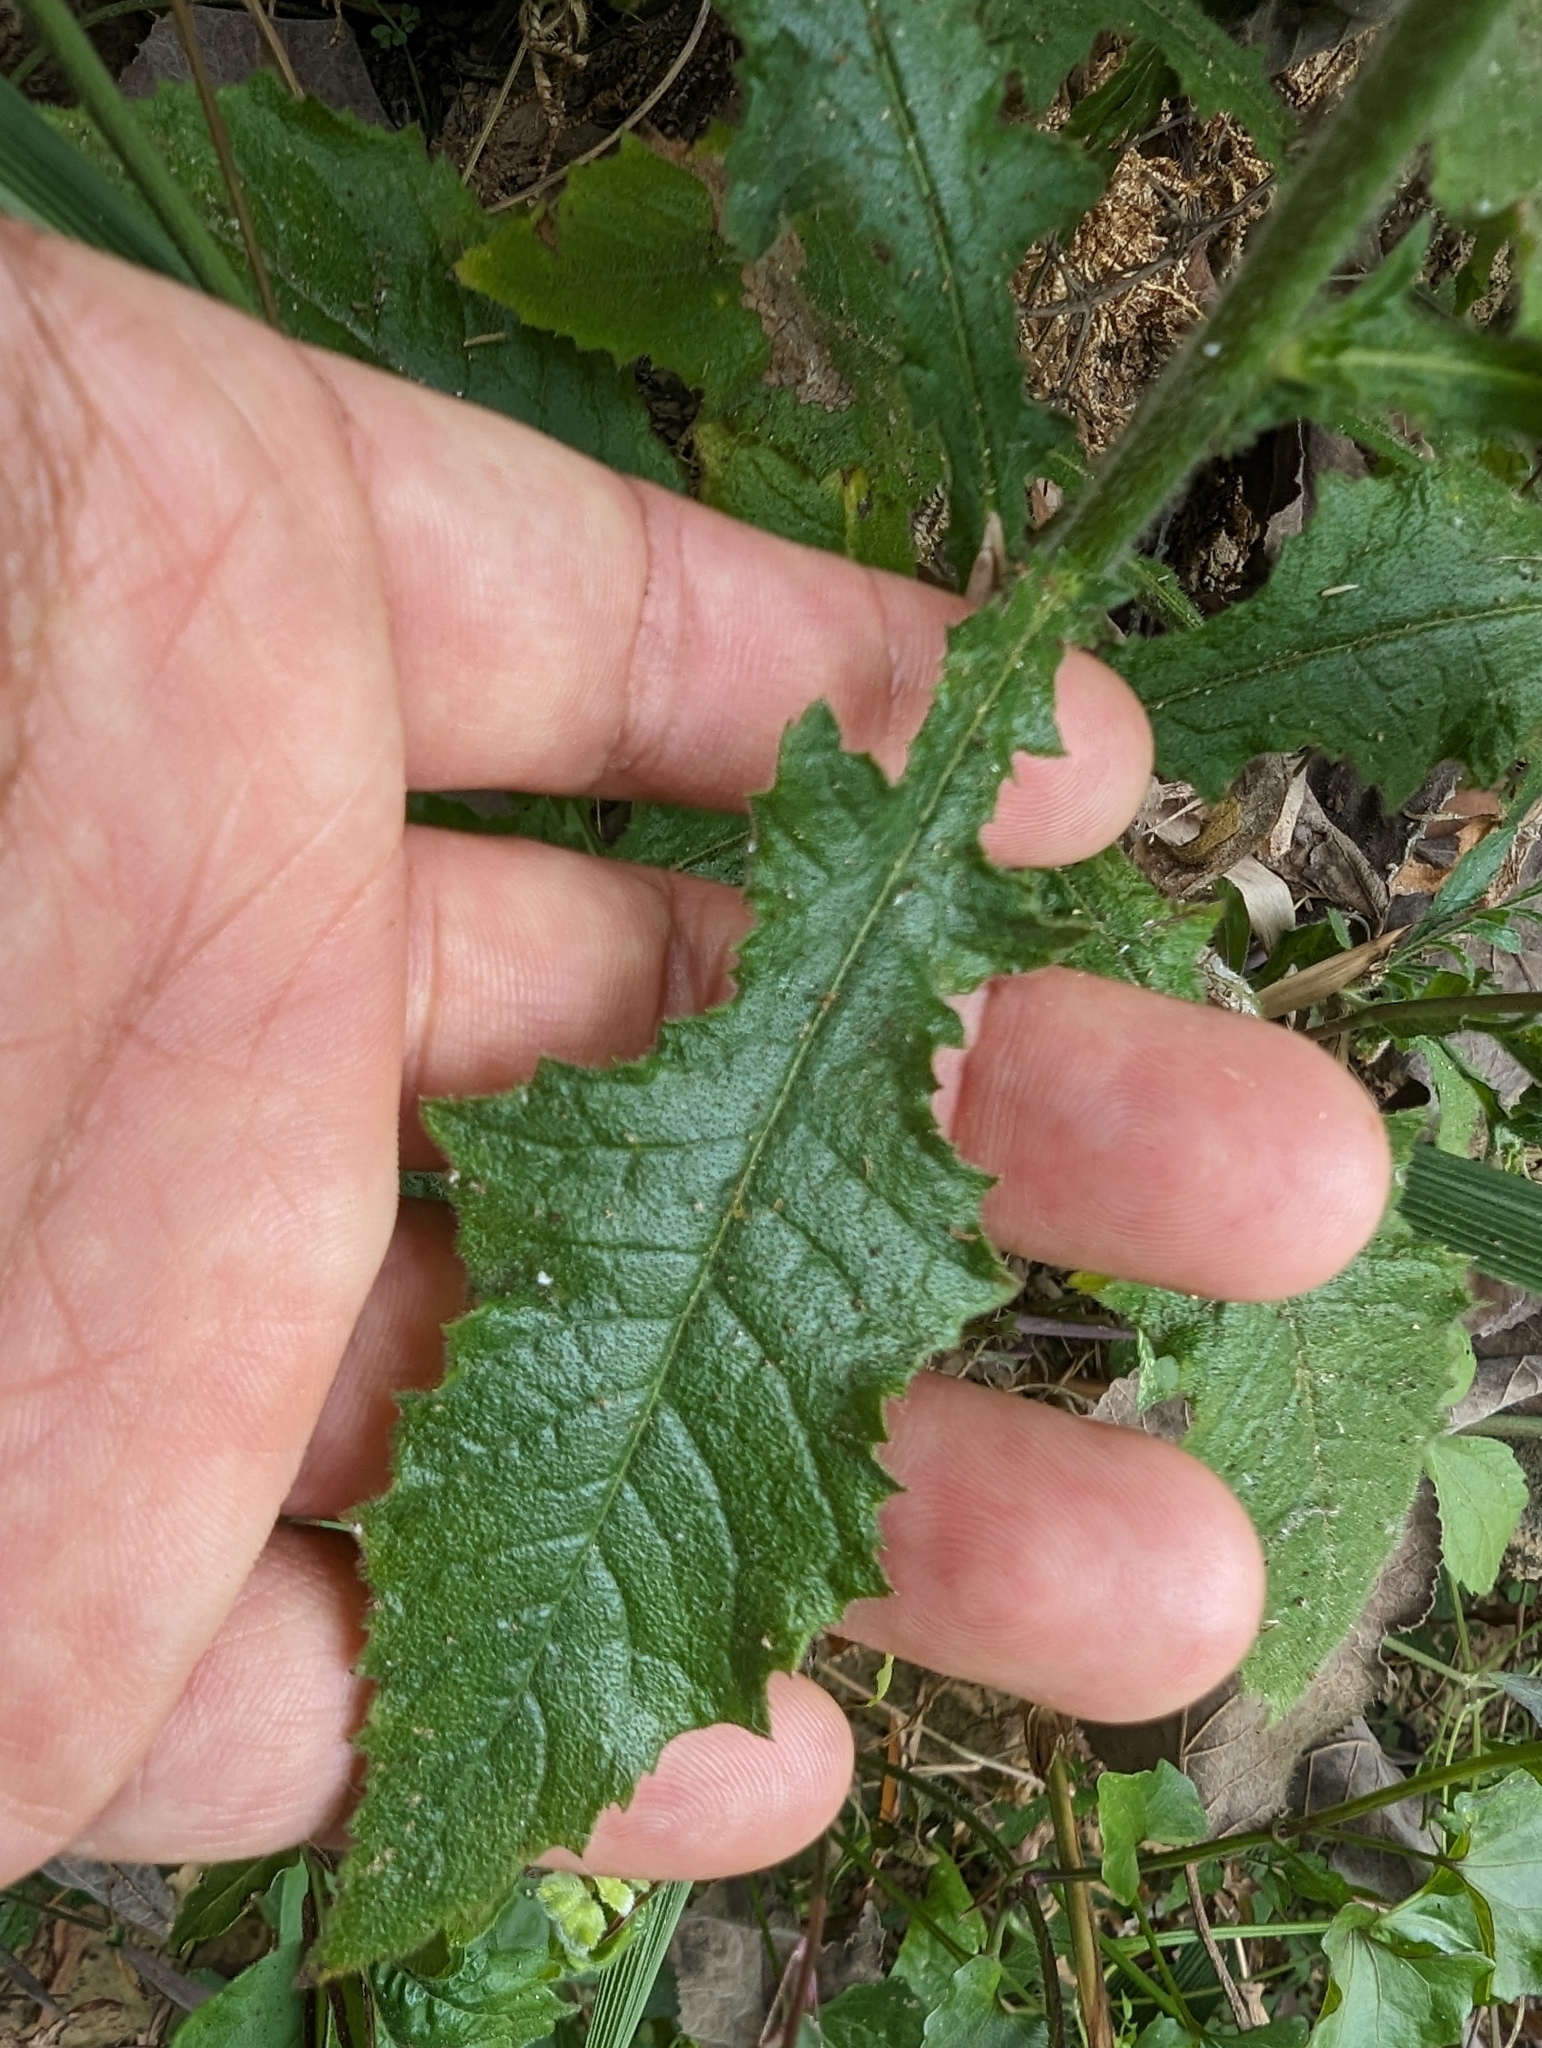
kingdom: Plantae
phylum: Tracheophyta
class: Magnoliopsida
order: Asterales
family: Asteraceae
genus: Blumea
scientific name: Blumea sinuata
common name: Cutleaf false oxtongue
